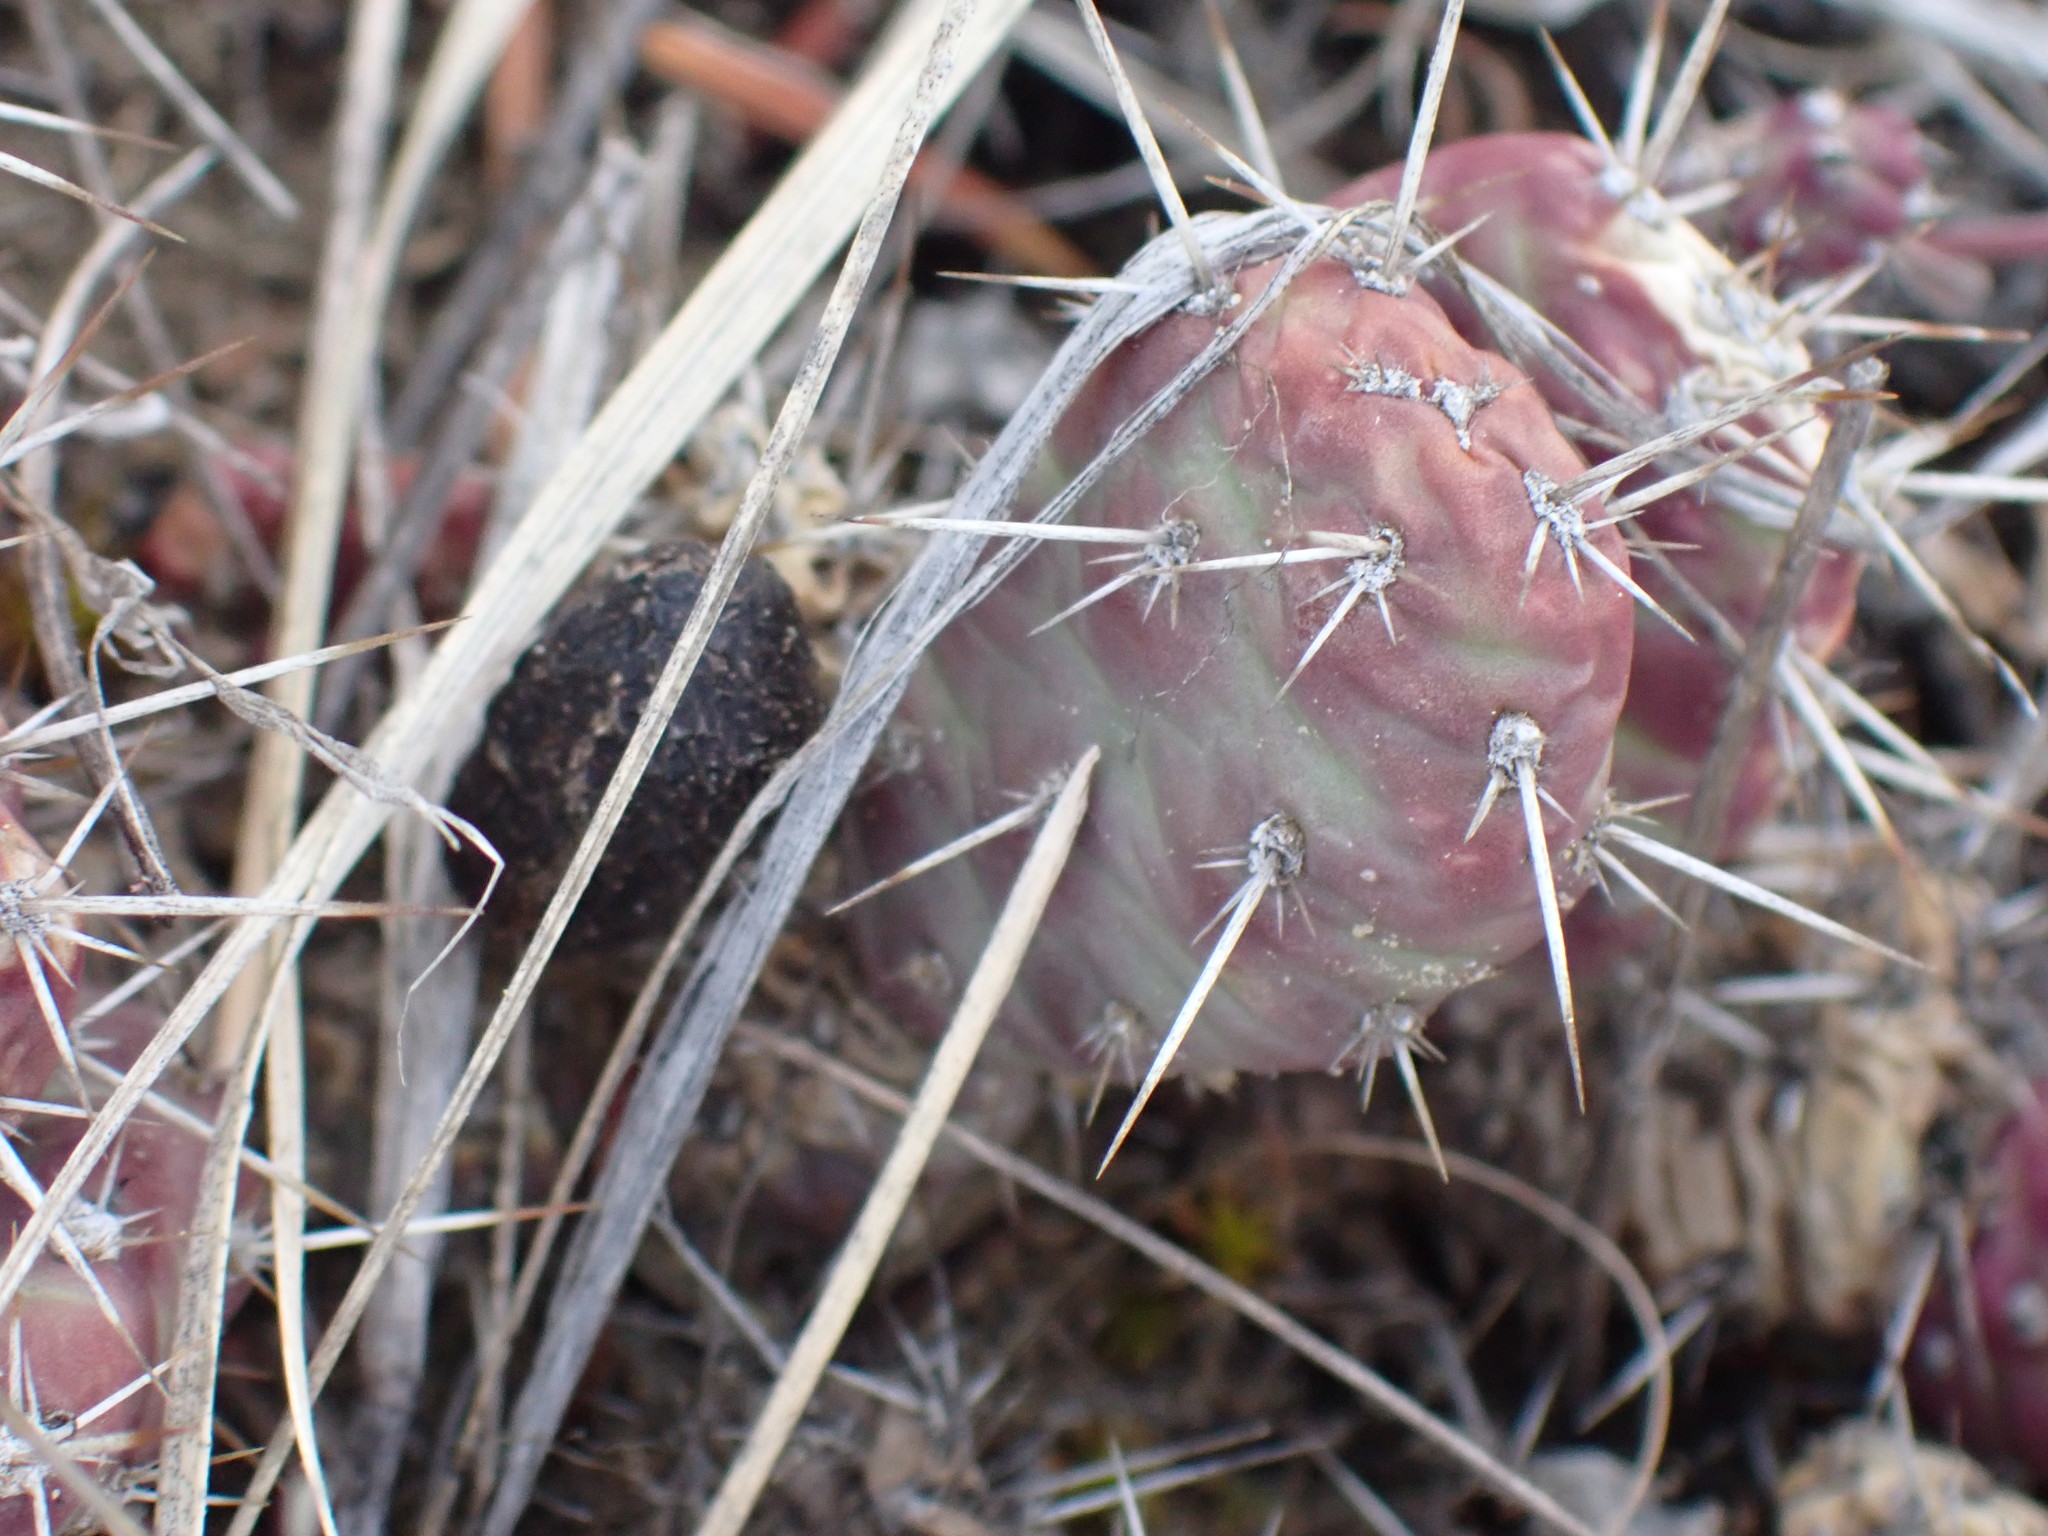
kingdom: Plantae
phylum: Tracheophyta
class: Magnoliopsida
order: Caryophyllales
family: Cactaceae
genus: Opuntia
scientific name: Opuntia fragilis
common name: Brittle cactus
